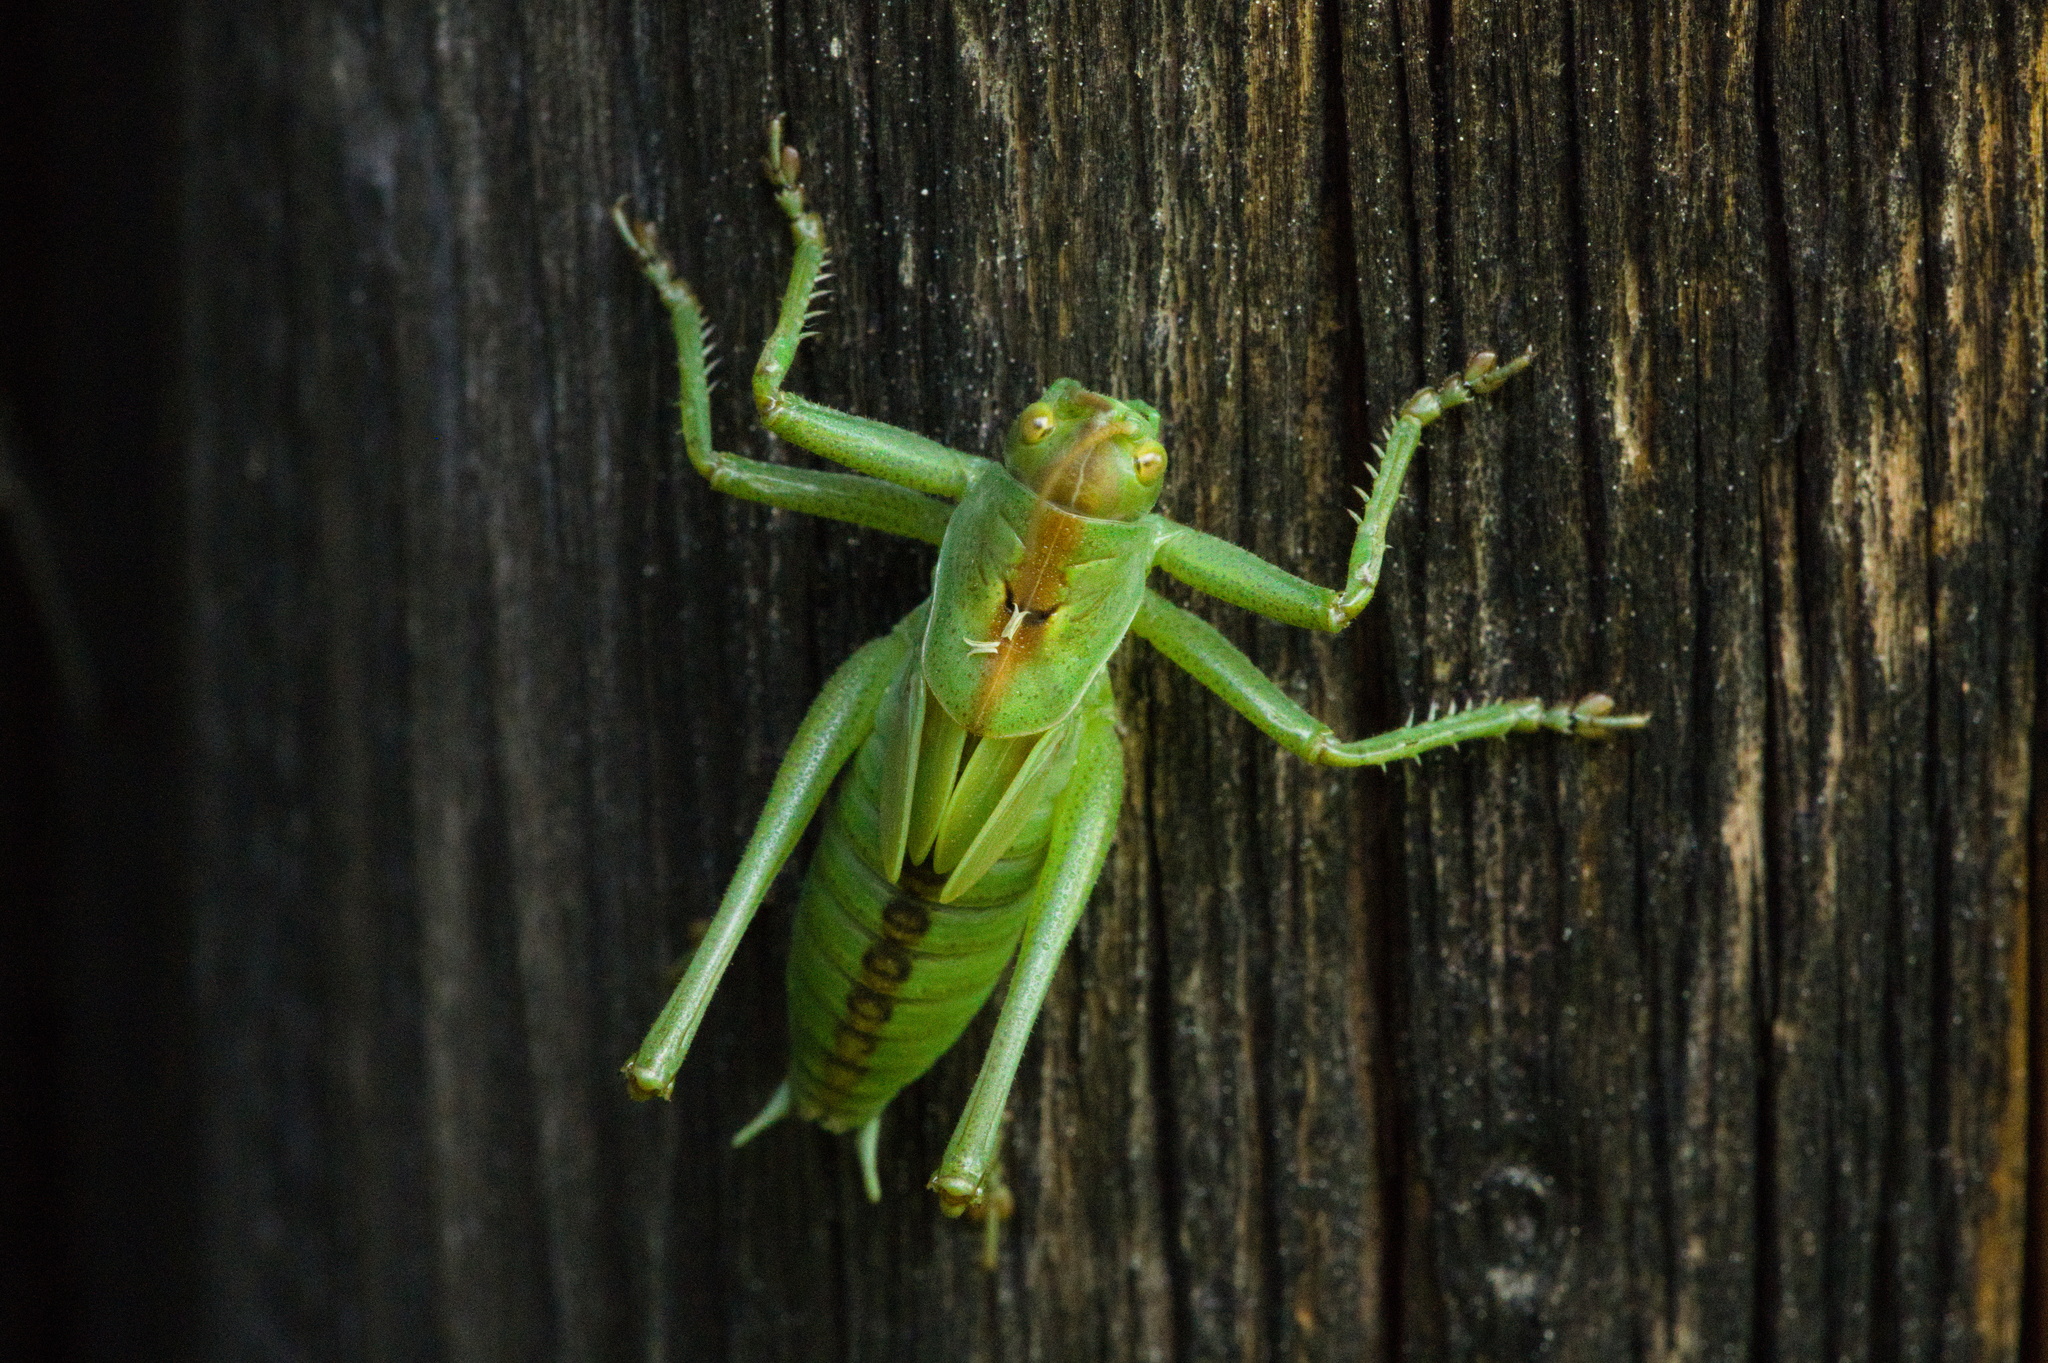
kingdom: Animalia
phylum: Arthropoda
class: Insecta
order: Orthoptera
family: Tettigoniidae
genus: Tettigonia
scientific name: Tettigonia cantans
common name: Upland green bush-cricket
